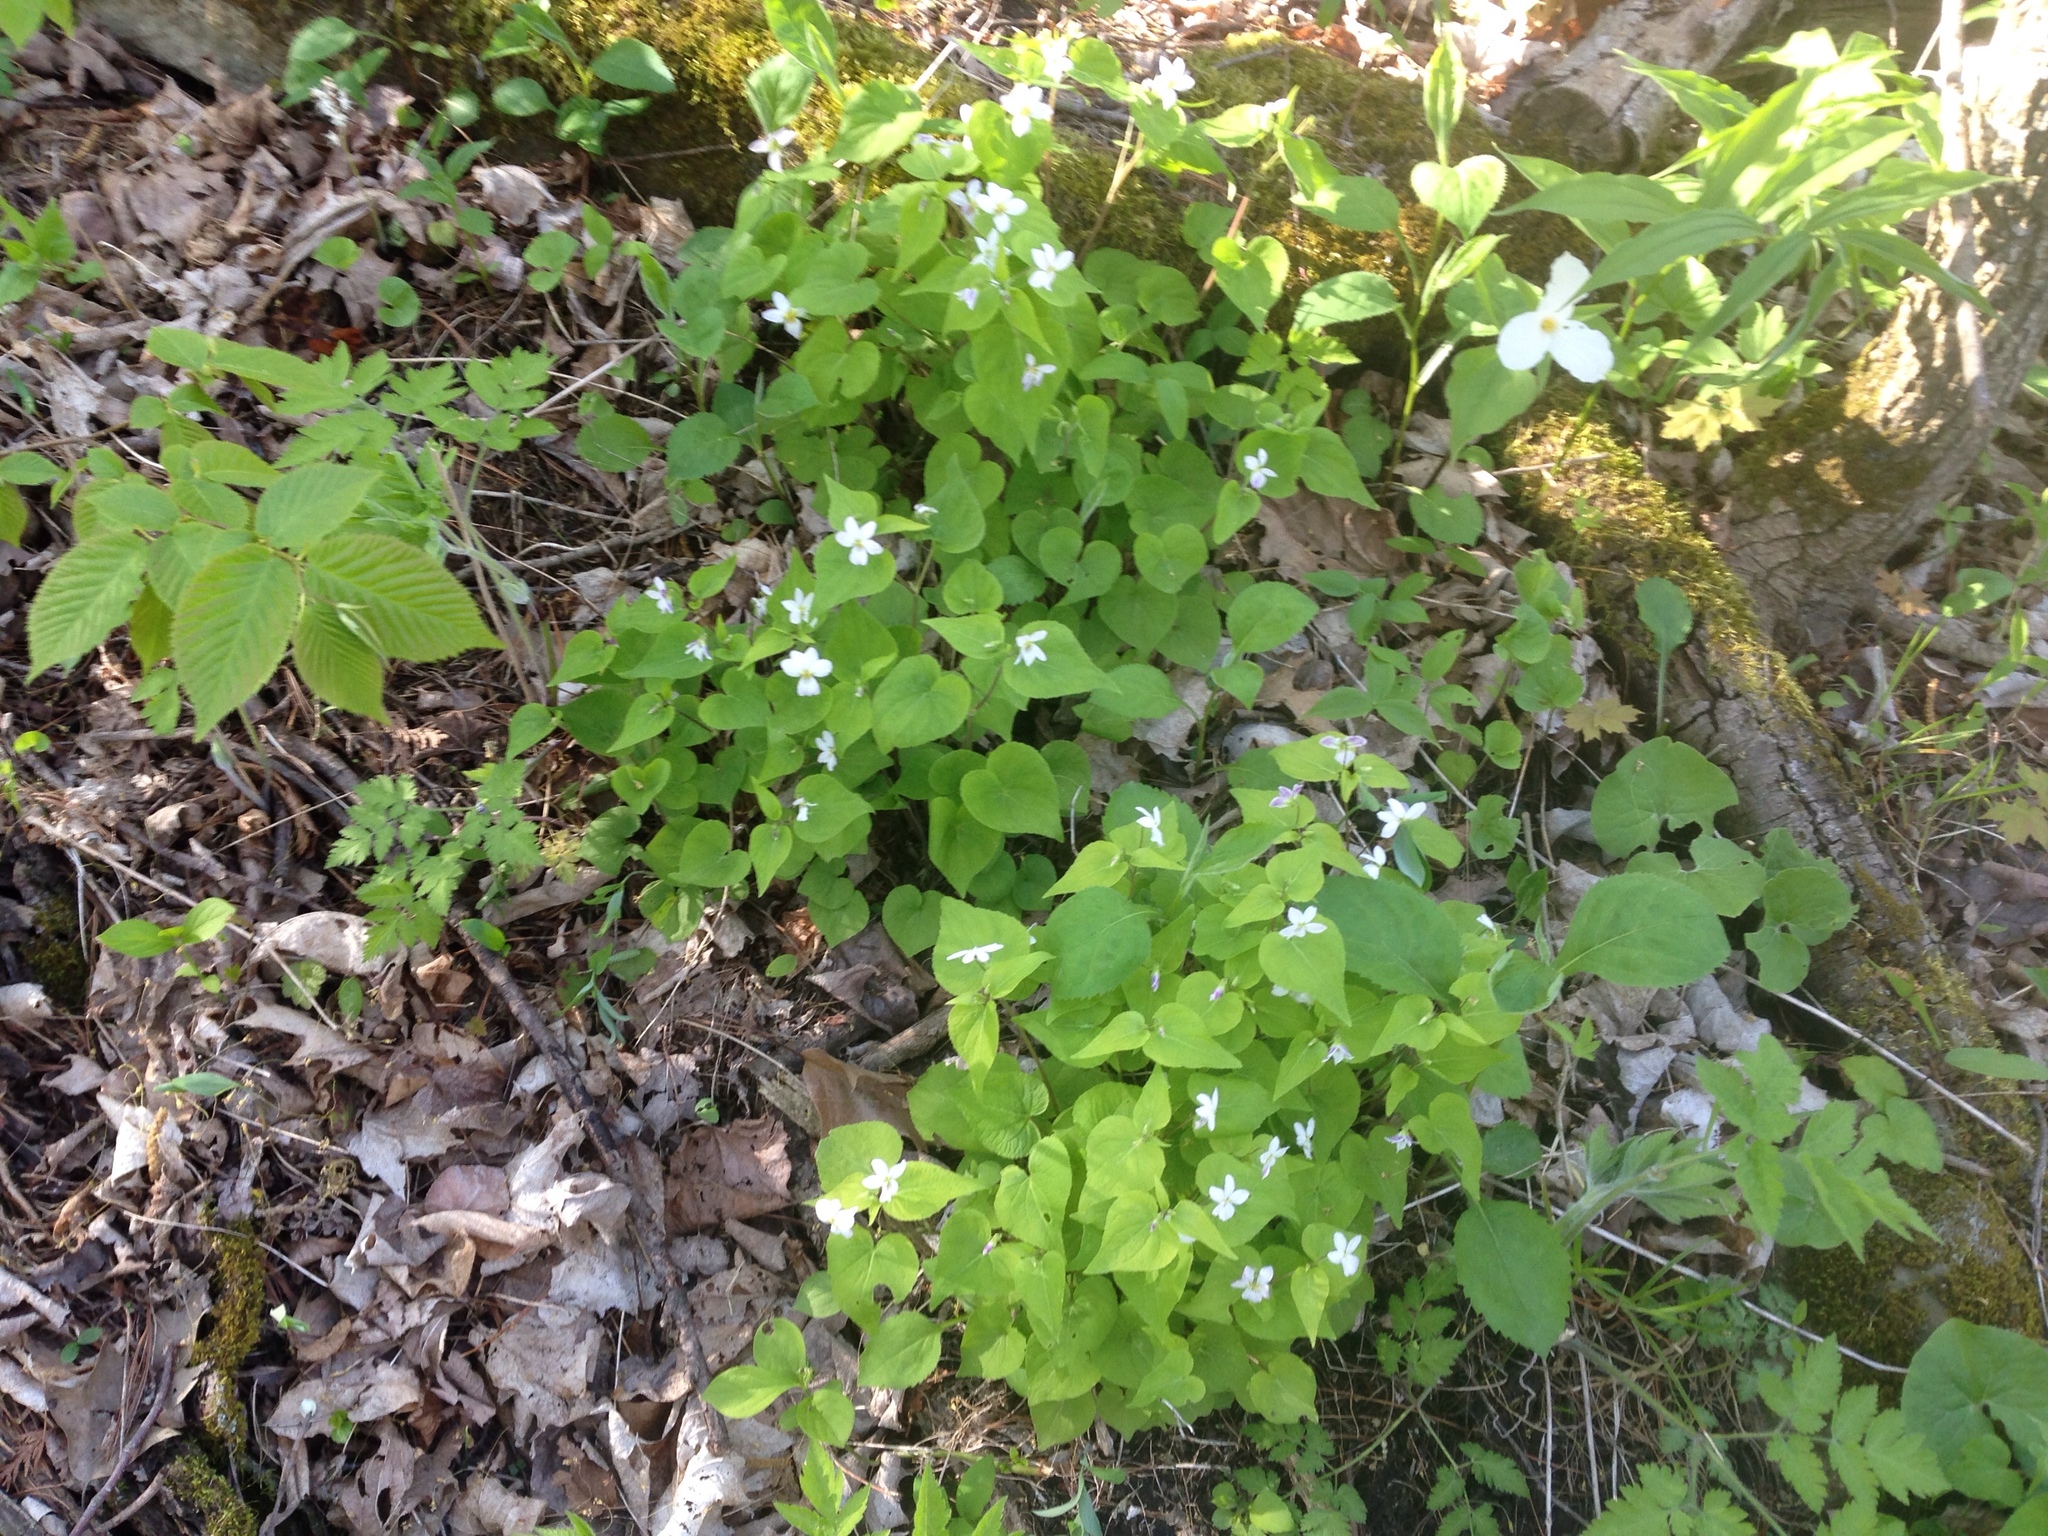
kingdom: Plantae
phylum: Tracheophyta
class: Magnoliopsida
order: Malpighiales
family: Violaceae
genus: Viola
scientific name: Viola canadensis
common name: Canada violet
